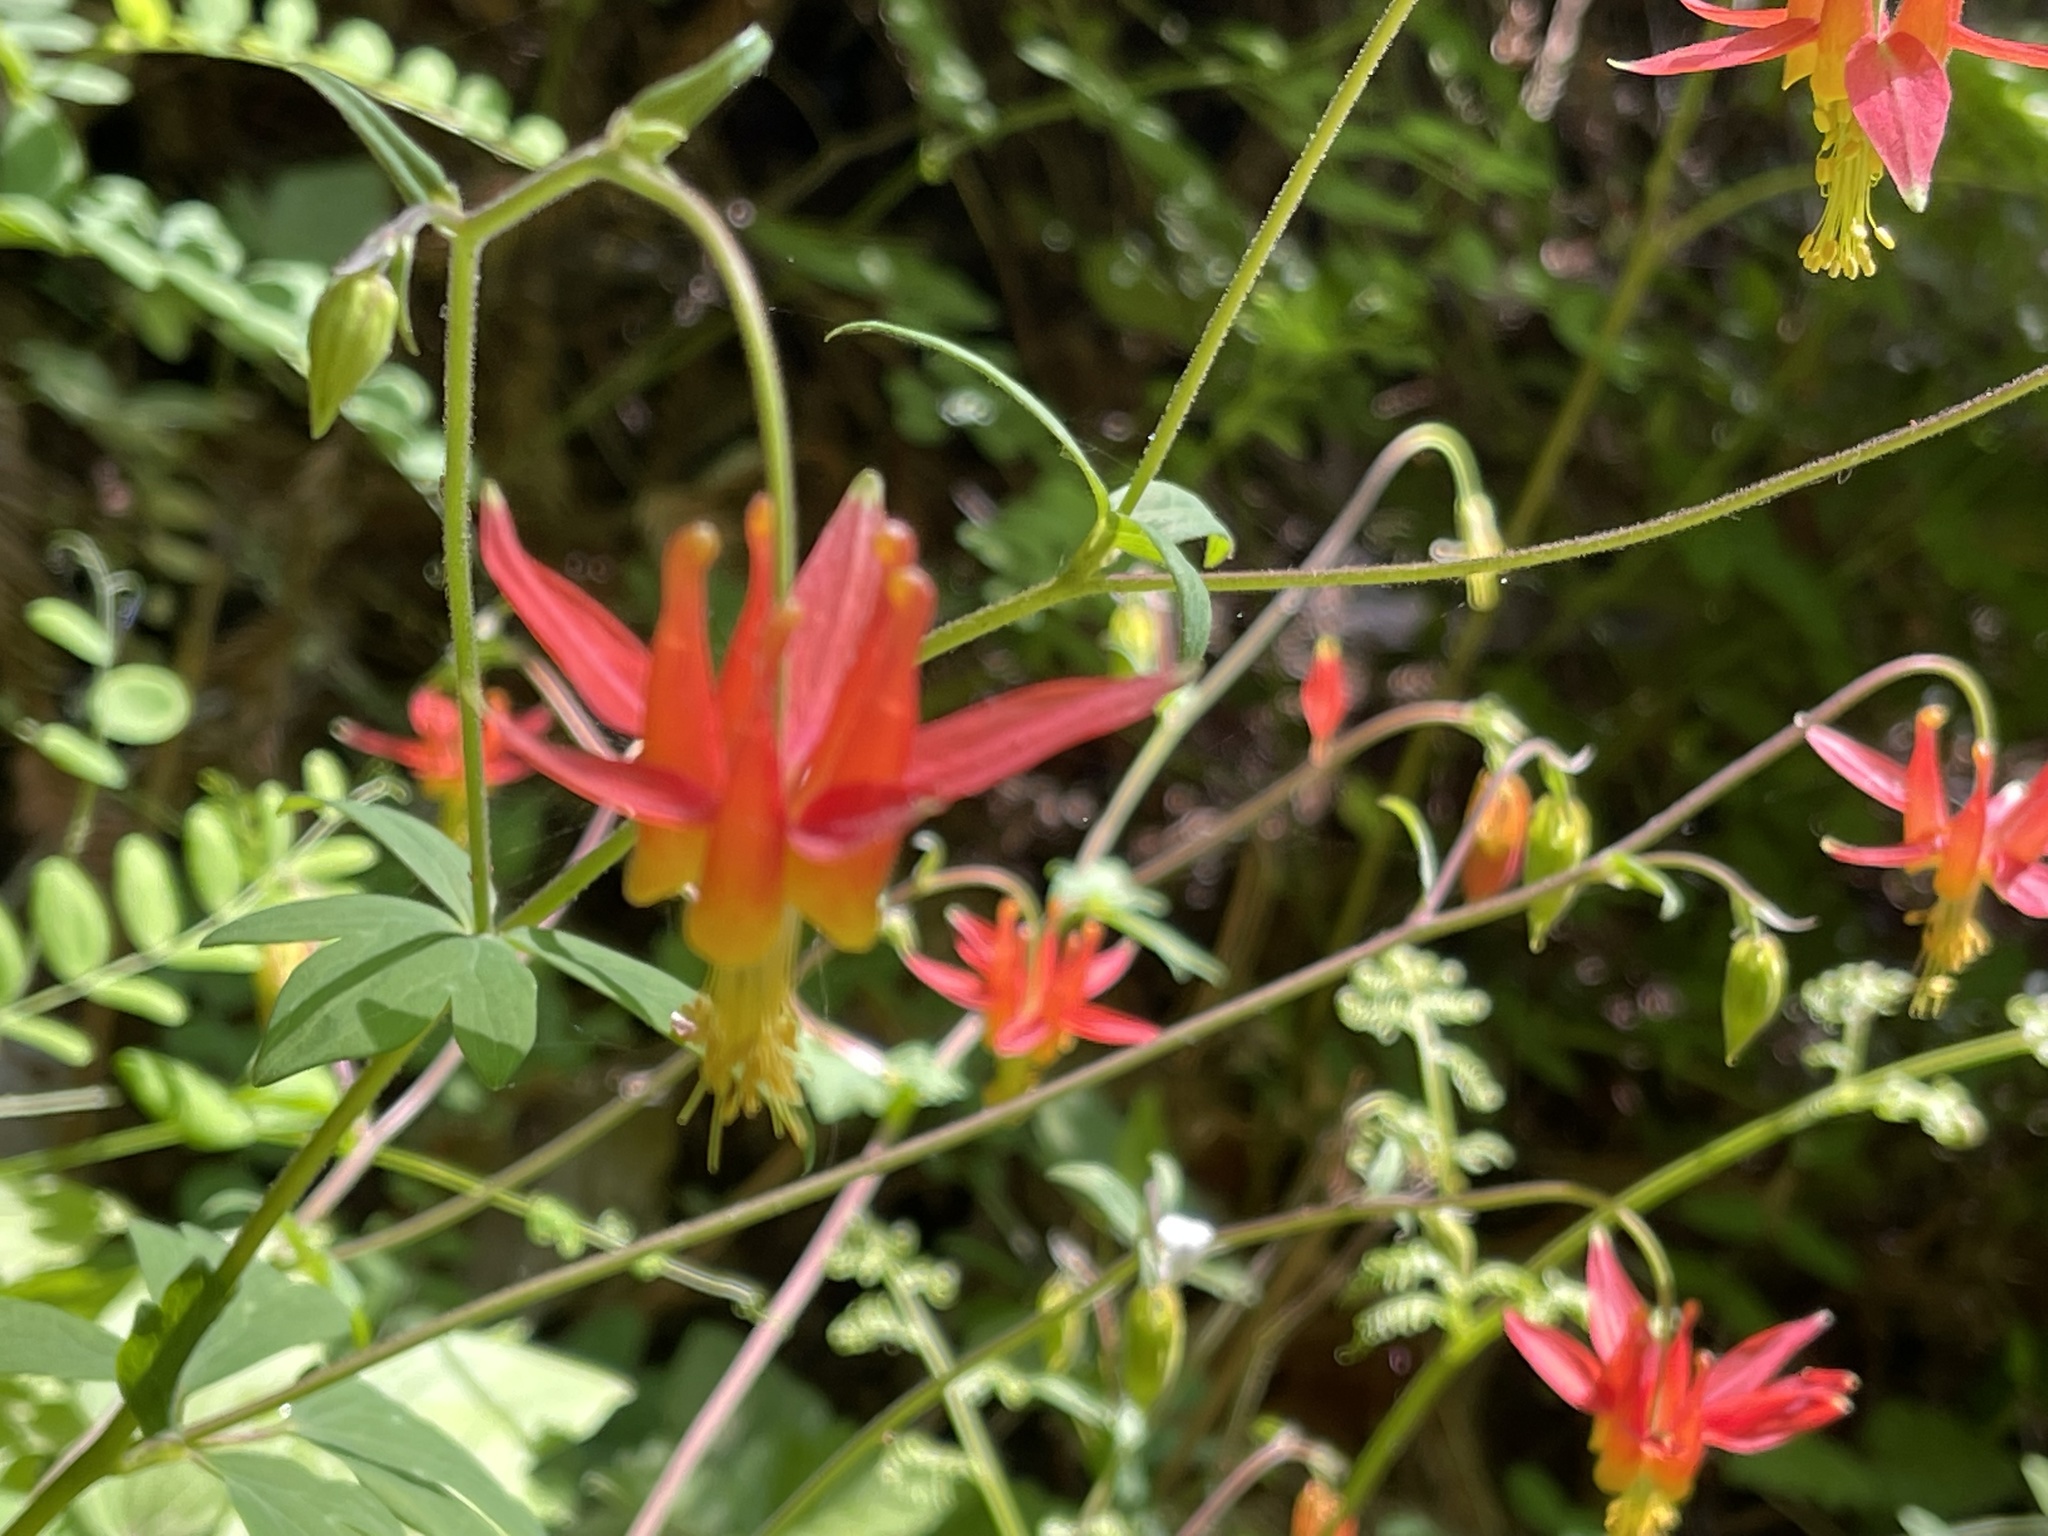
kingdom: Plantae
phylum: Tracheophyta
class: Magnoliopsida
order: Ranunculales
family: Ranunculaceae
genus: Aquilegia
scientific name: Aquilegia formosa
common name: Sitka columbine
